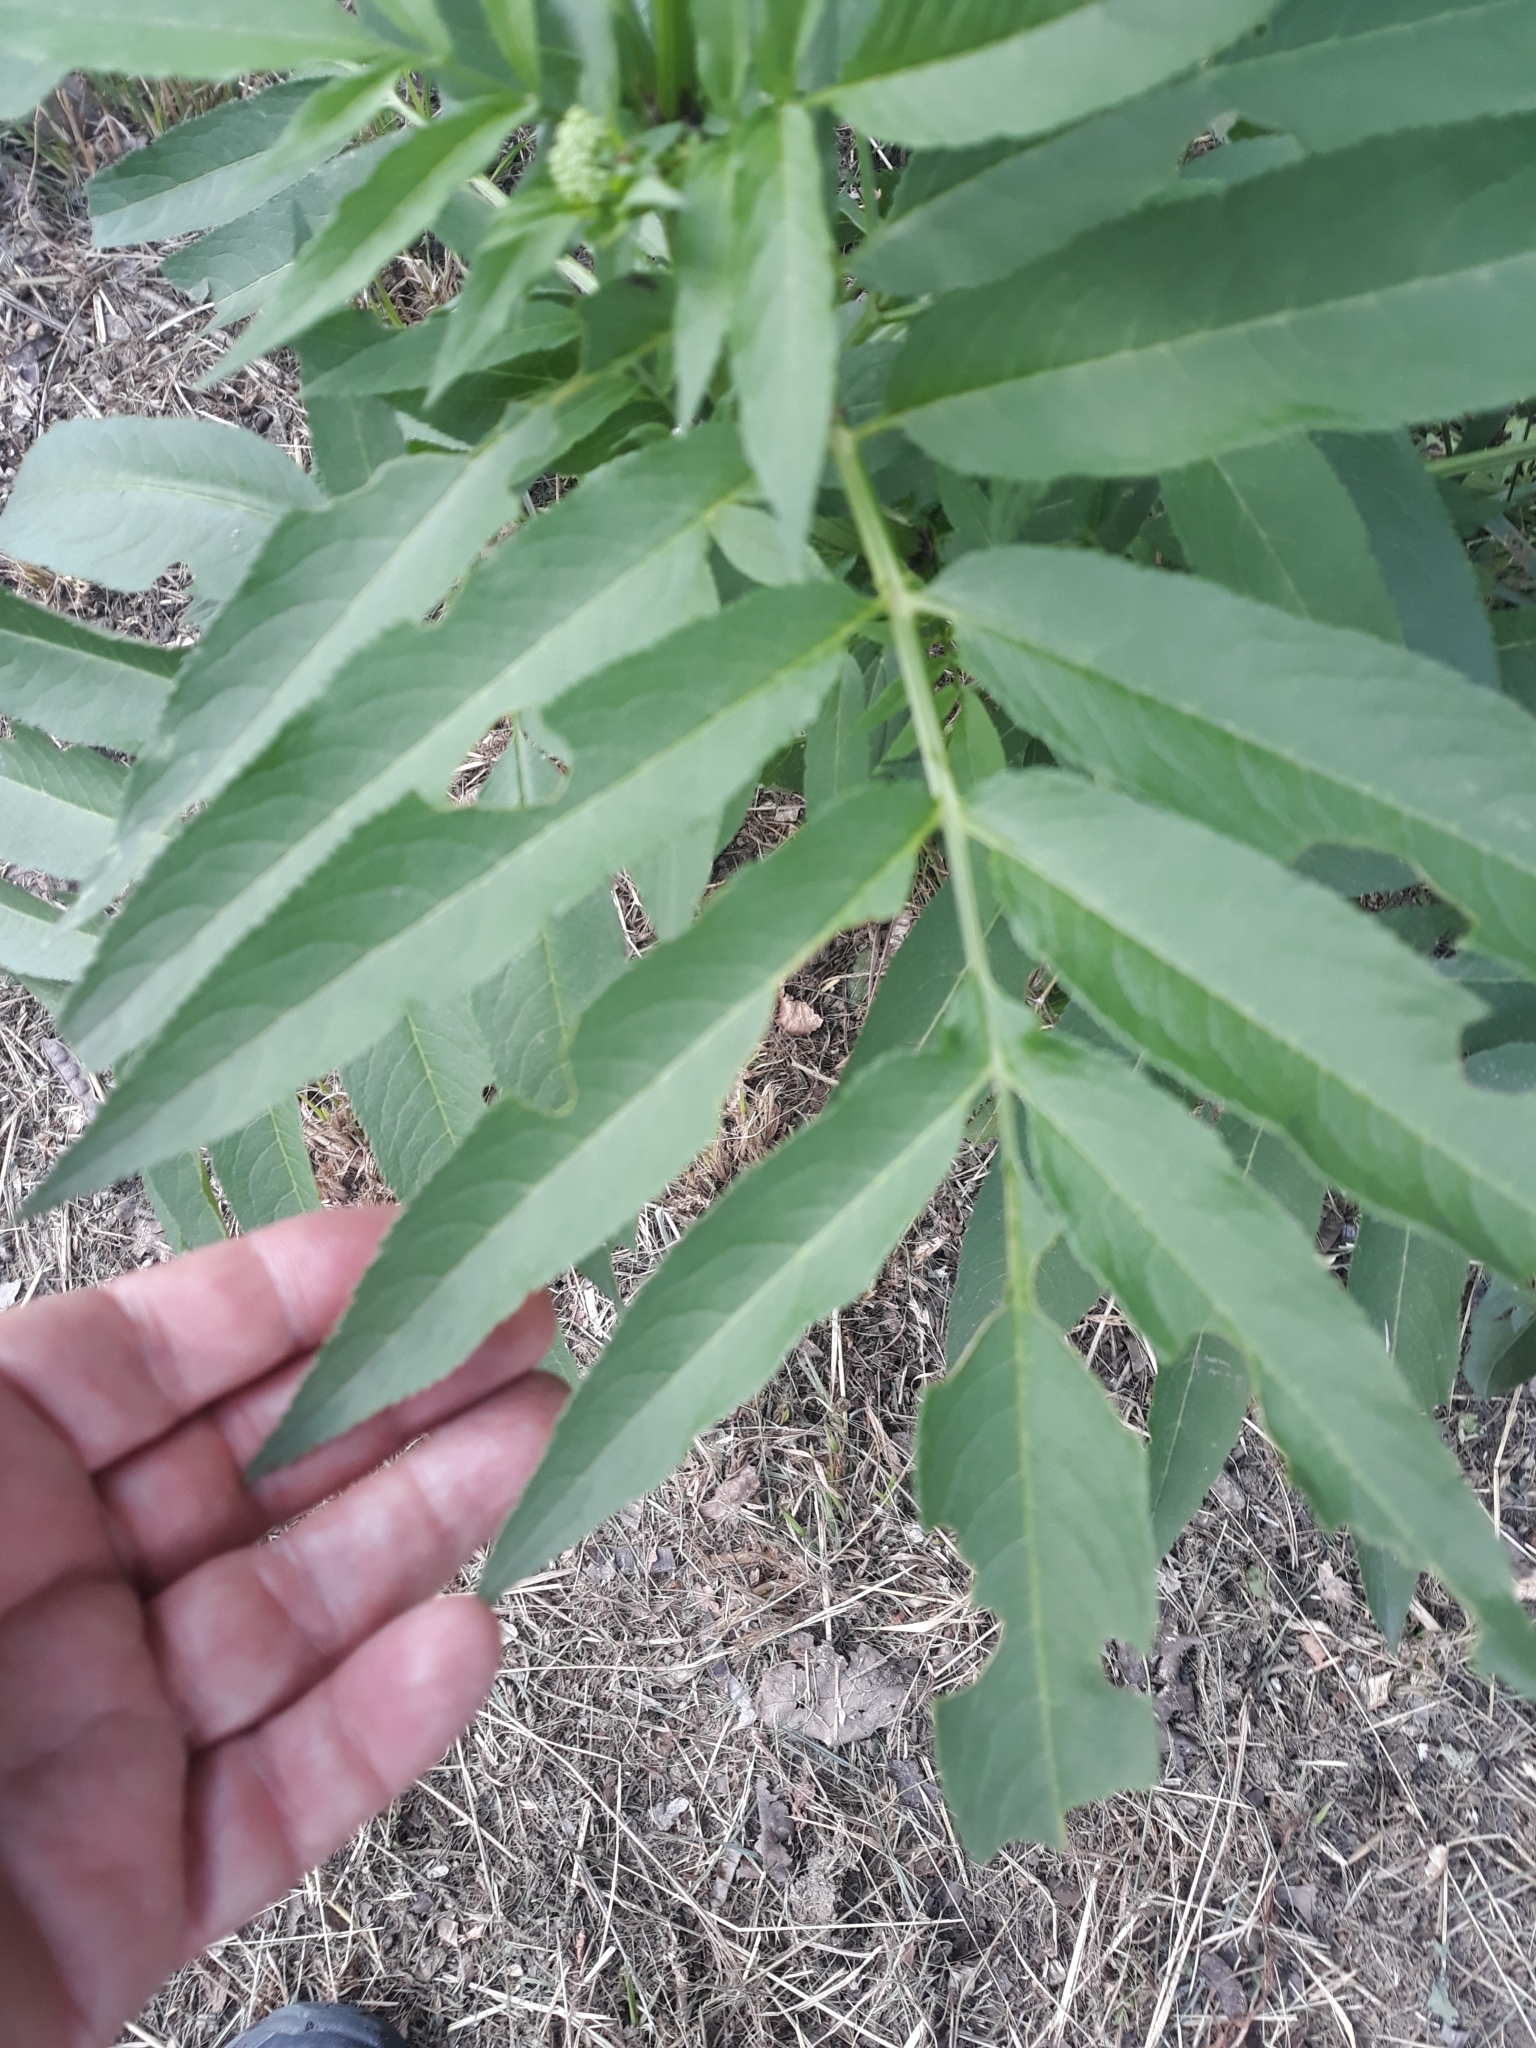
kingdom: Plantae
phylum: Tracheophyta
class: Magnoliopsida
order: Dipsacales
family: Viburnaceae
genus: Sambucus
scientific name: Sambucus ebulus
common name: Dwarf elder
